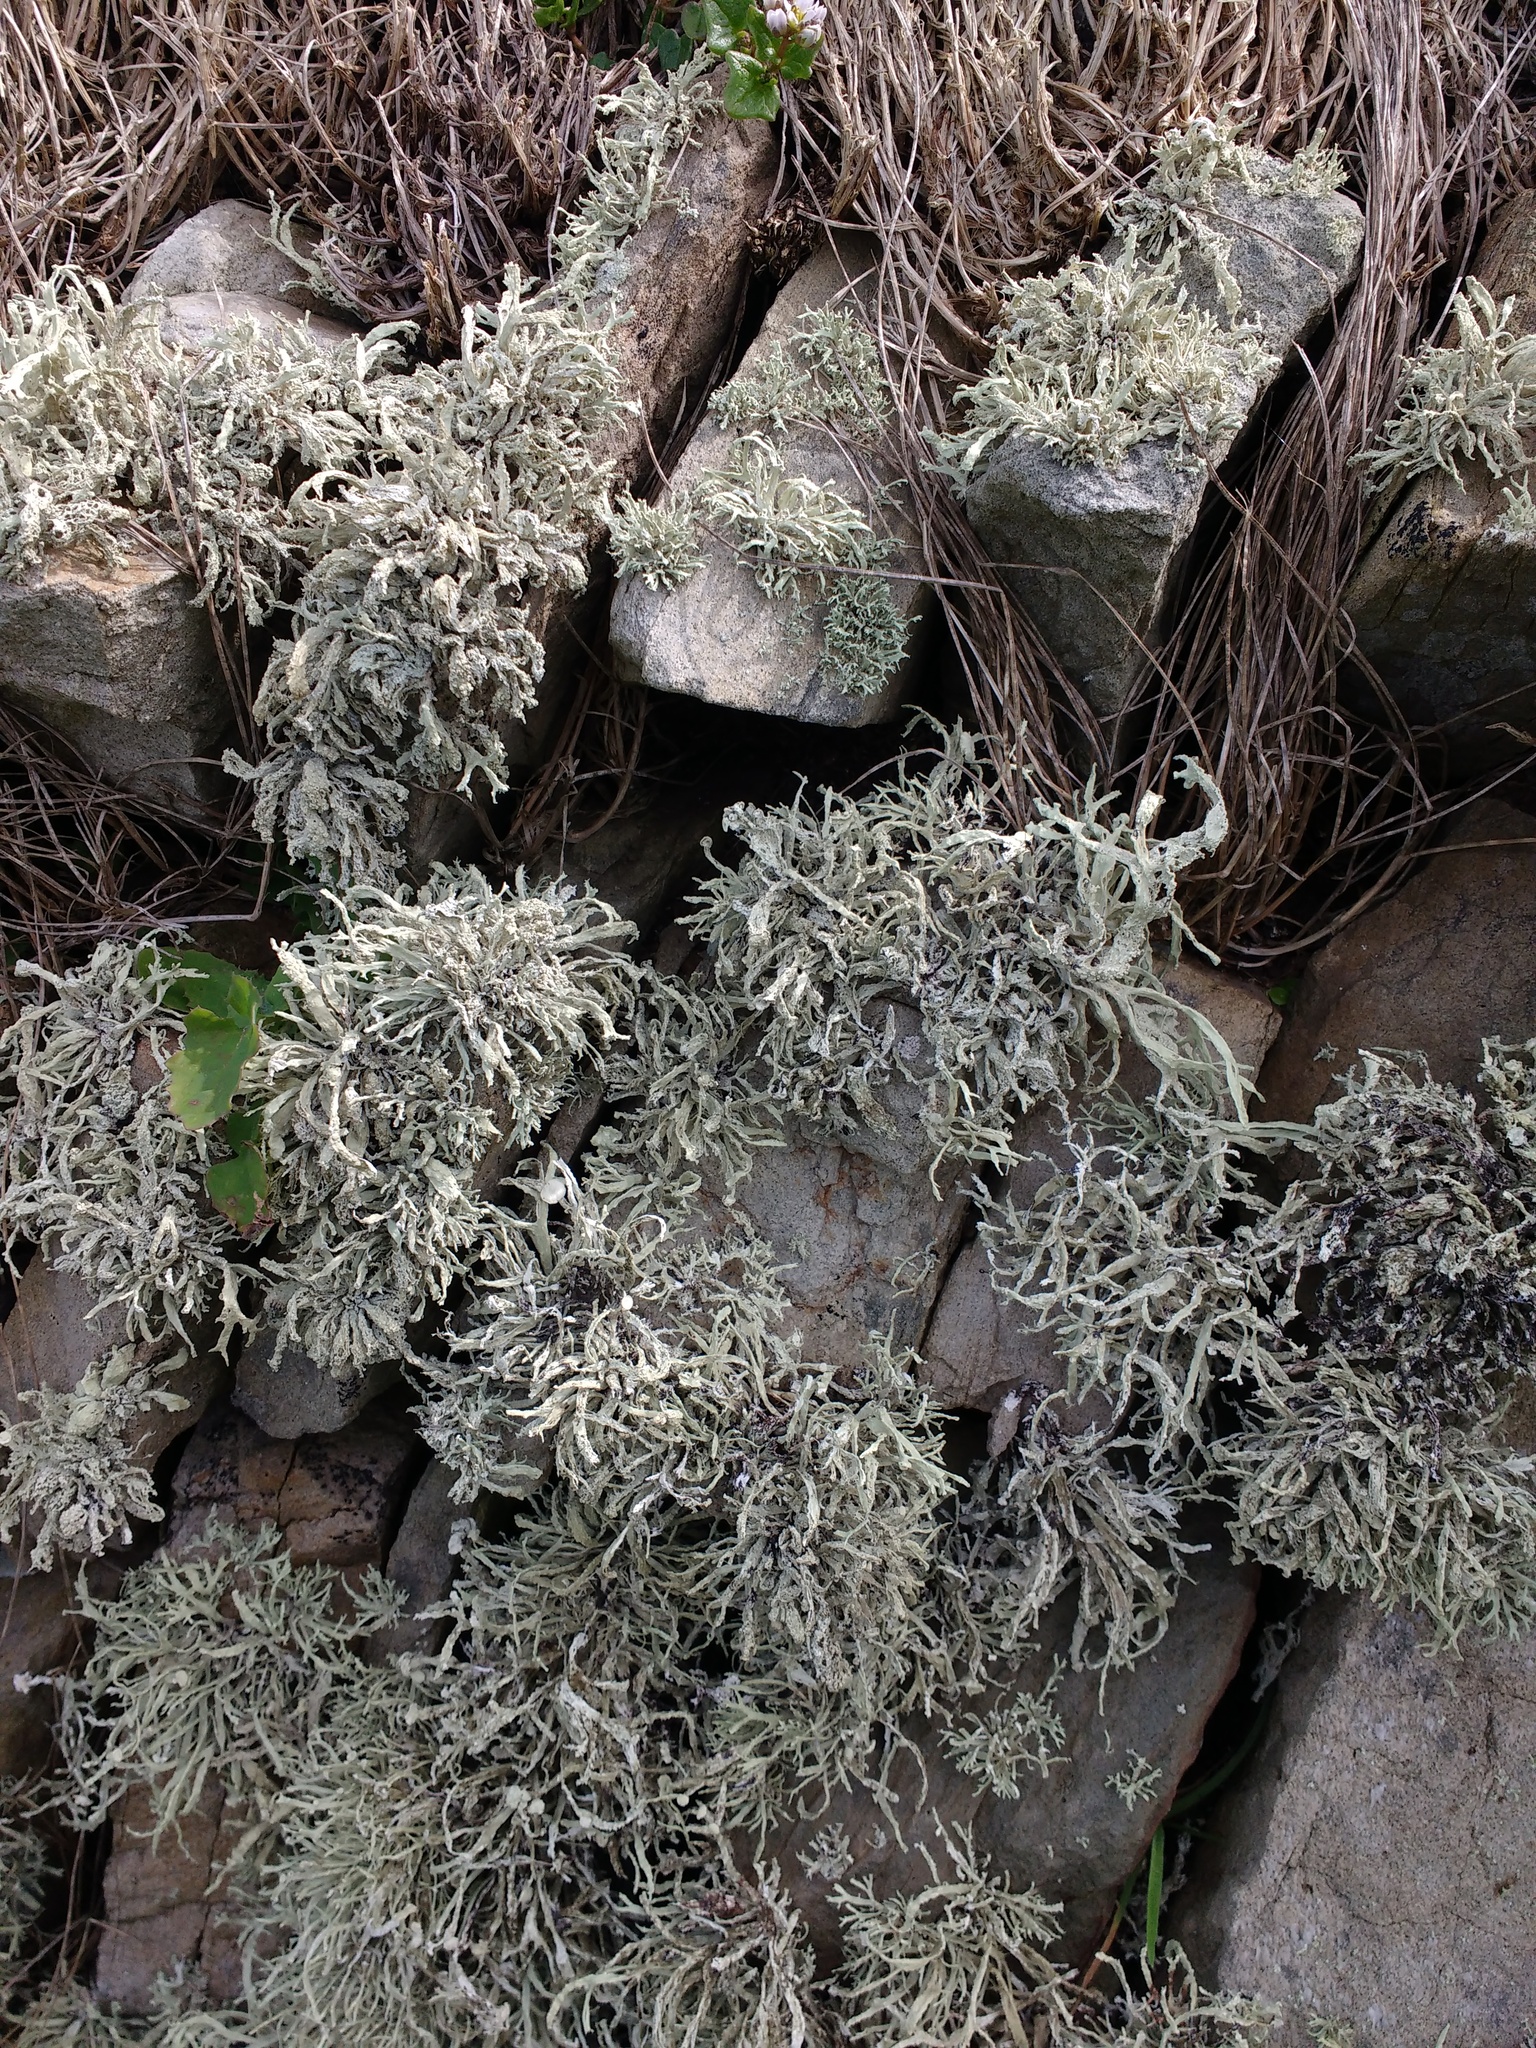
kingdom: Fungi
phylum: Ascomycota
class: Lecanoromycetes
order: Lecanorales
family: Ramalinaceae
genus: Ramalina
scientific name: Ramalina siliquosa
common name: Sea ivory
